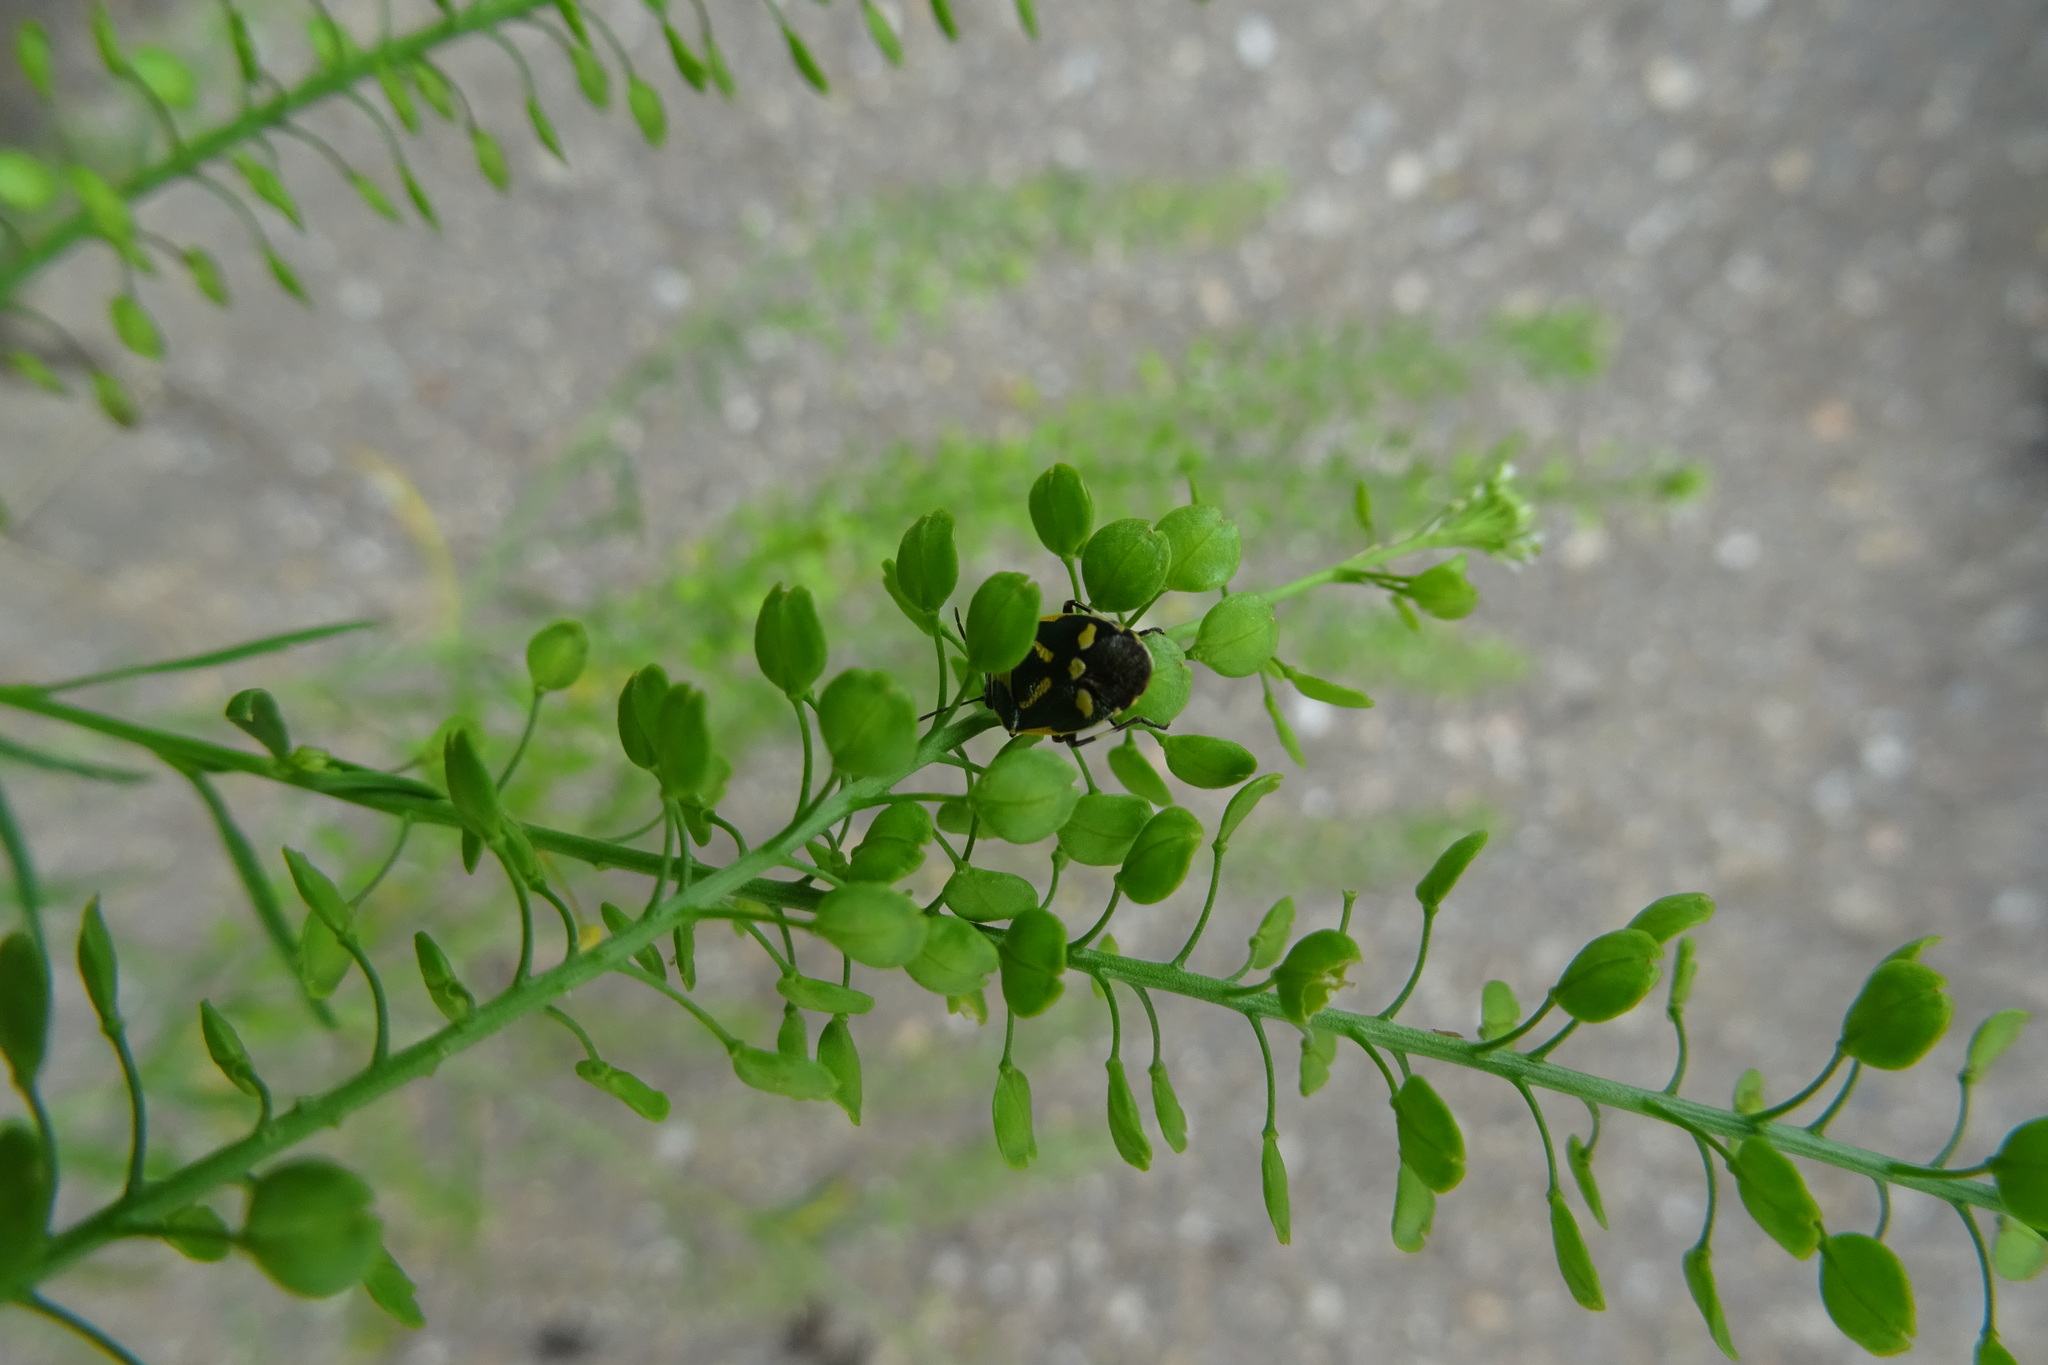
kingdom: Animalia
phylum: Arthropoda
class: Insecta
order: Hemiptera
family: Pentatomidae
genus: Eurydema
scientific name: Eurydema oleracea
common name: Cabbage bug
